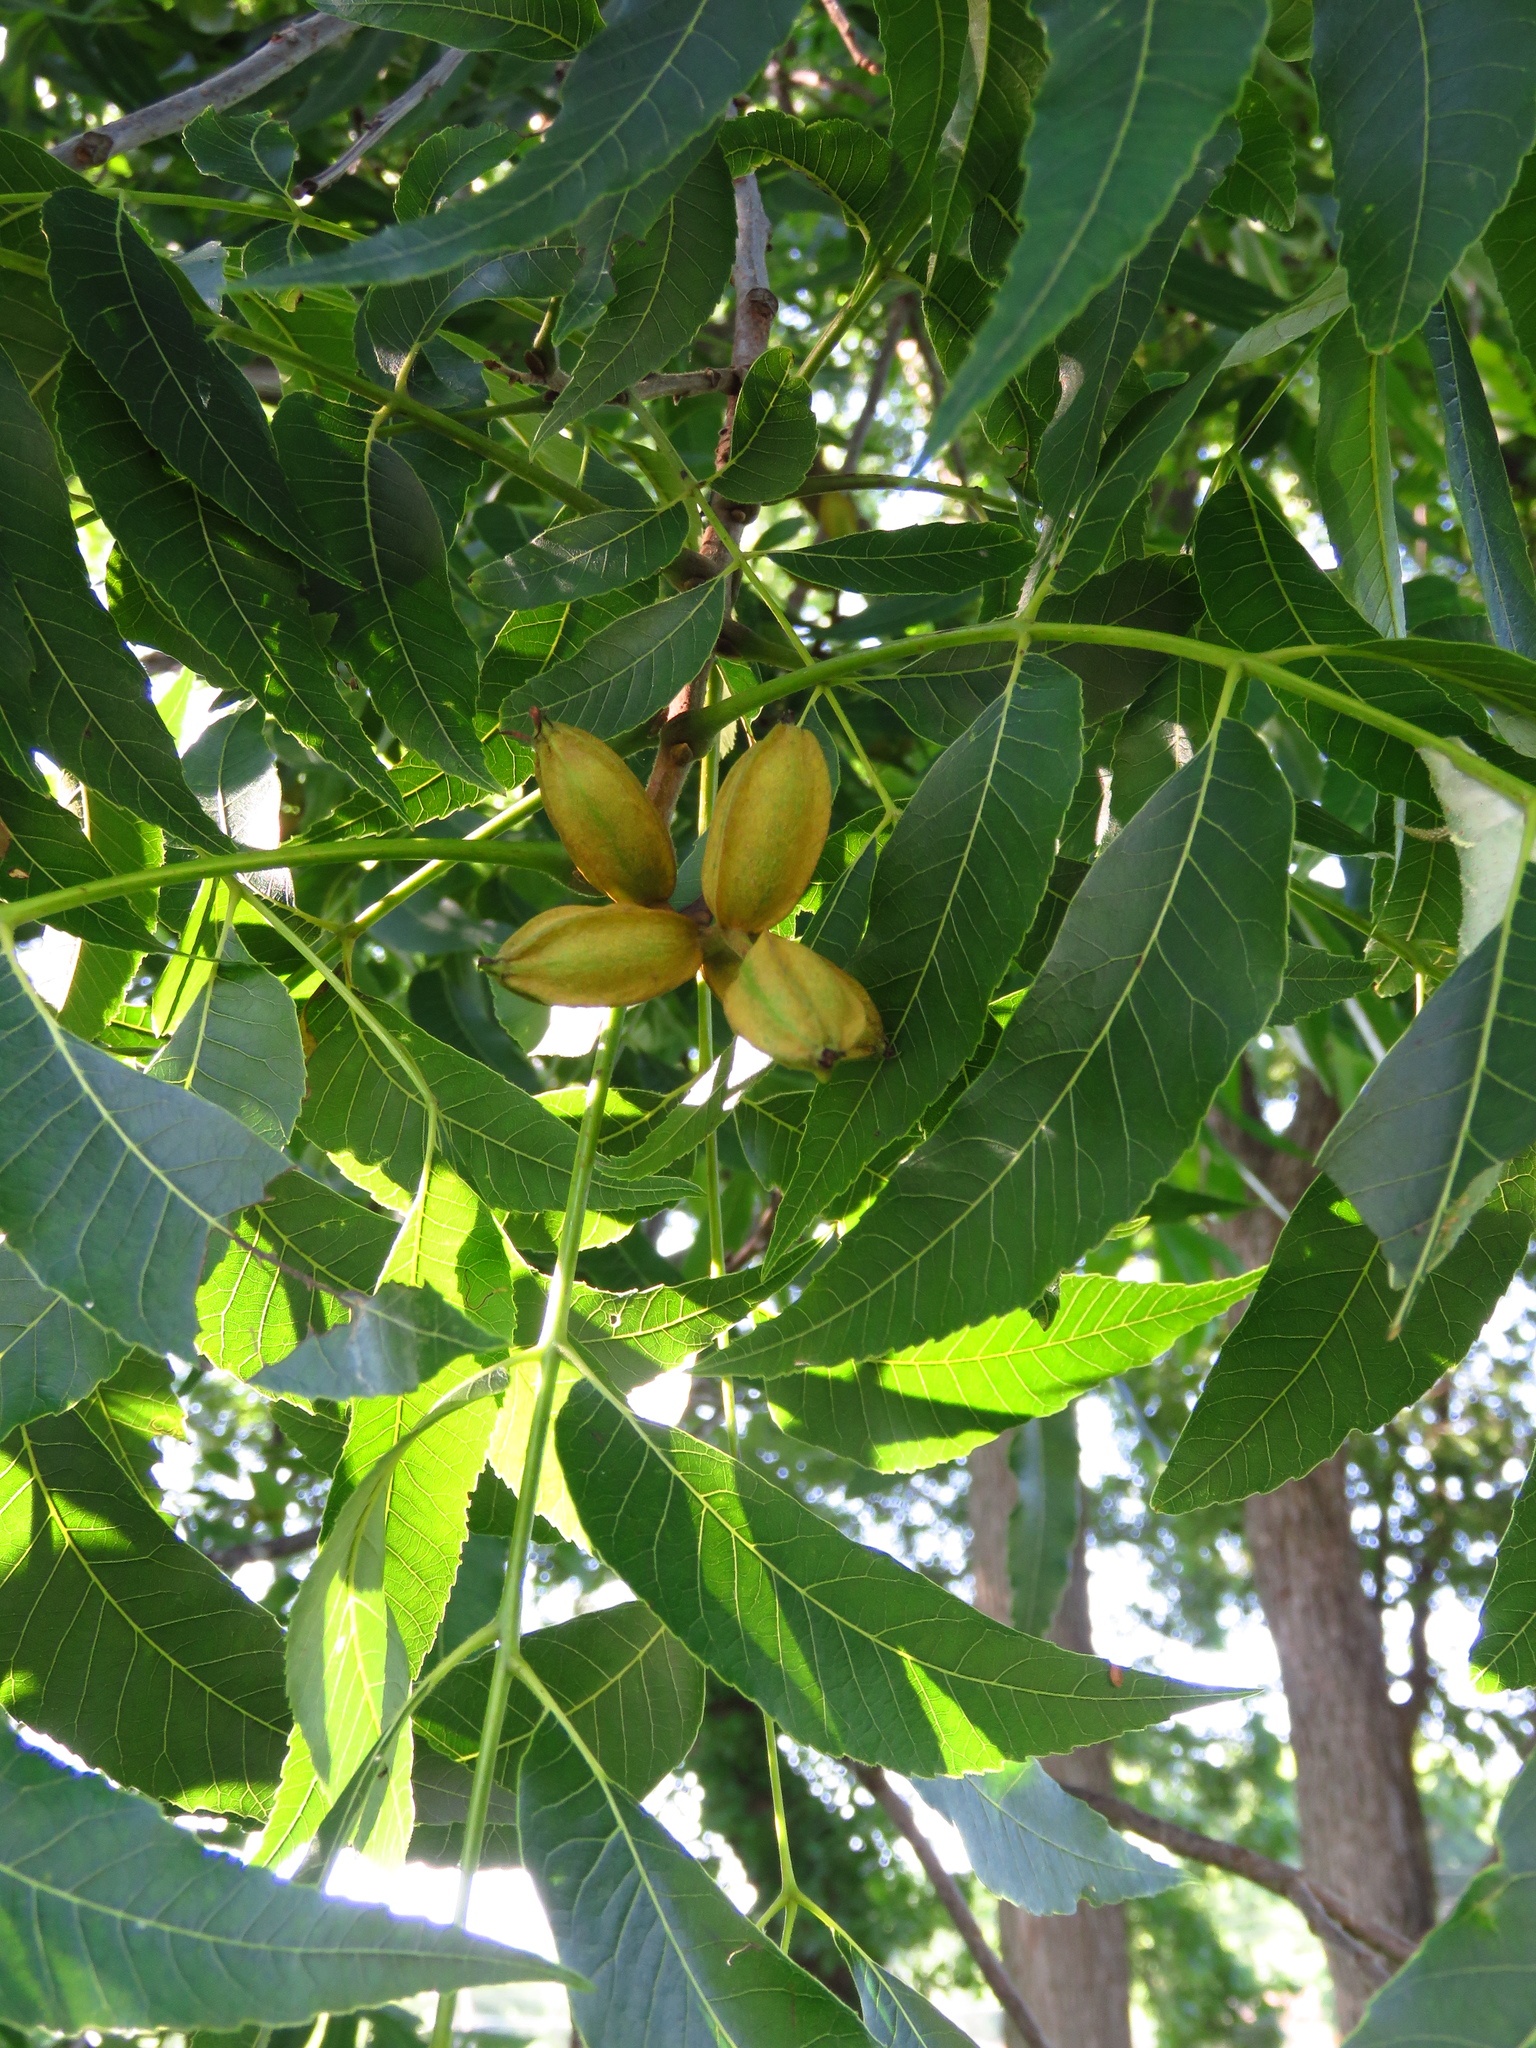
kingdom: Plantae
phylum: Tracheophyta
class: Magnoliopsida
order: Fagales
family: Juglandaceae
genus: Carya
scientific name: Carya illinoinensis
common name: Pecan
